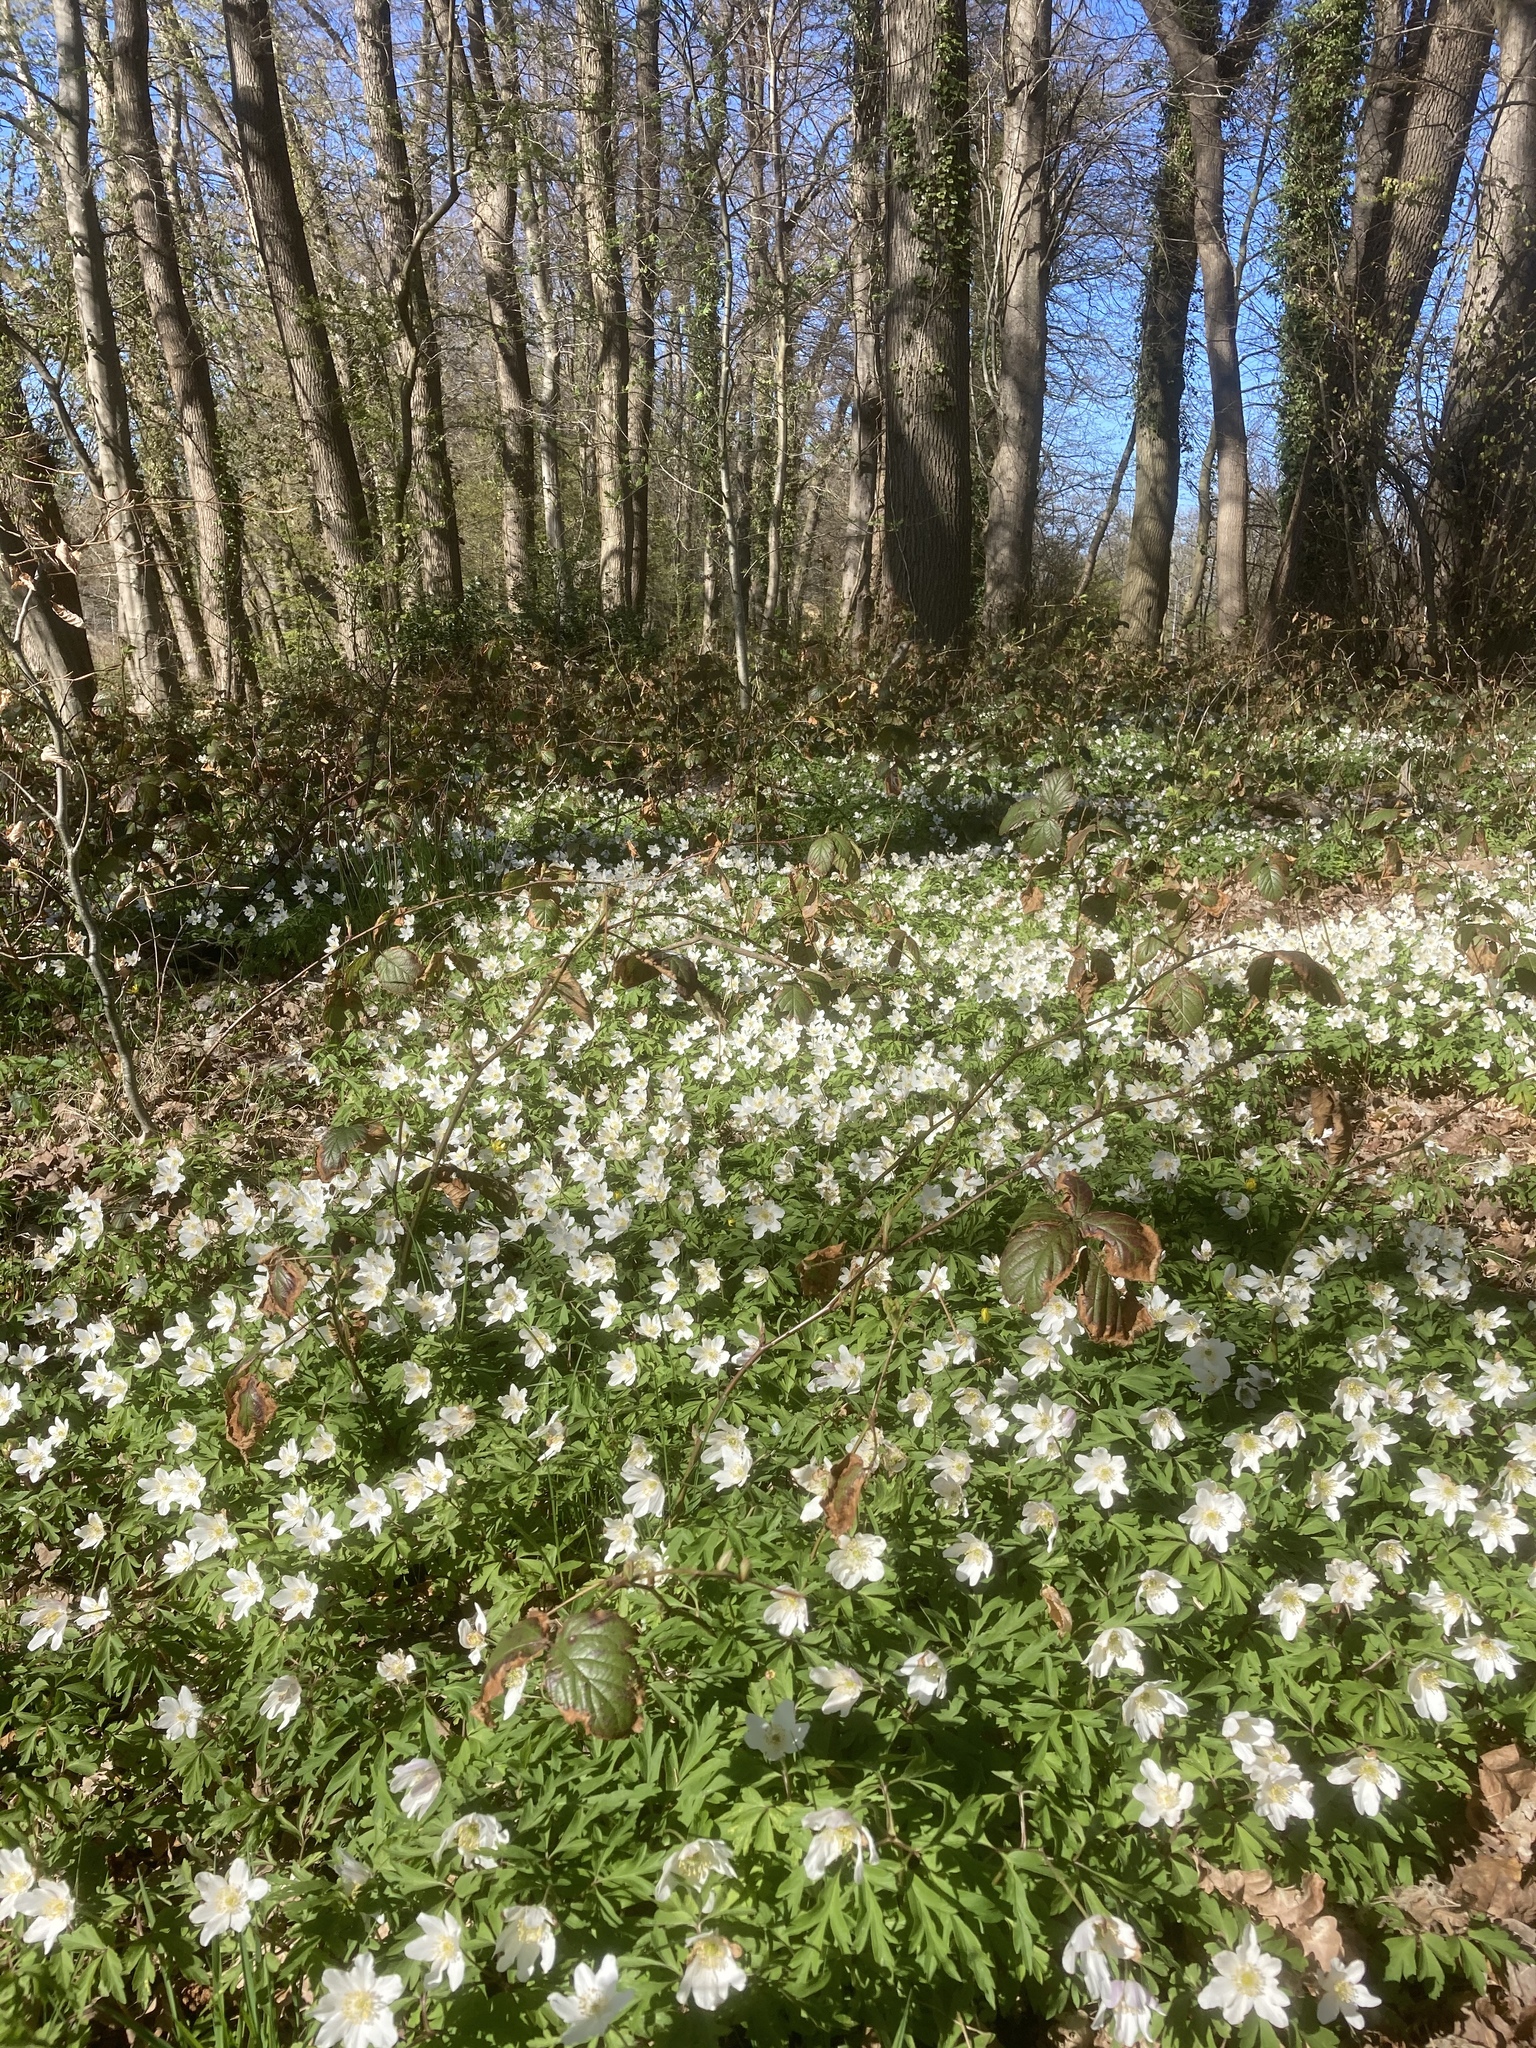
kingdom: Plantae
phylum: Tracheophyta
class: Magnoliopsida
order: Ranunculales
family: Ranunculaceae
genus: Anemone
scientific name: Anemone nemorosa
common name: Wood anemone
